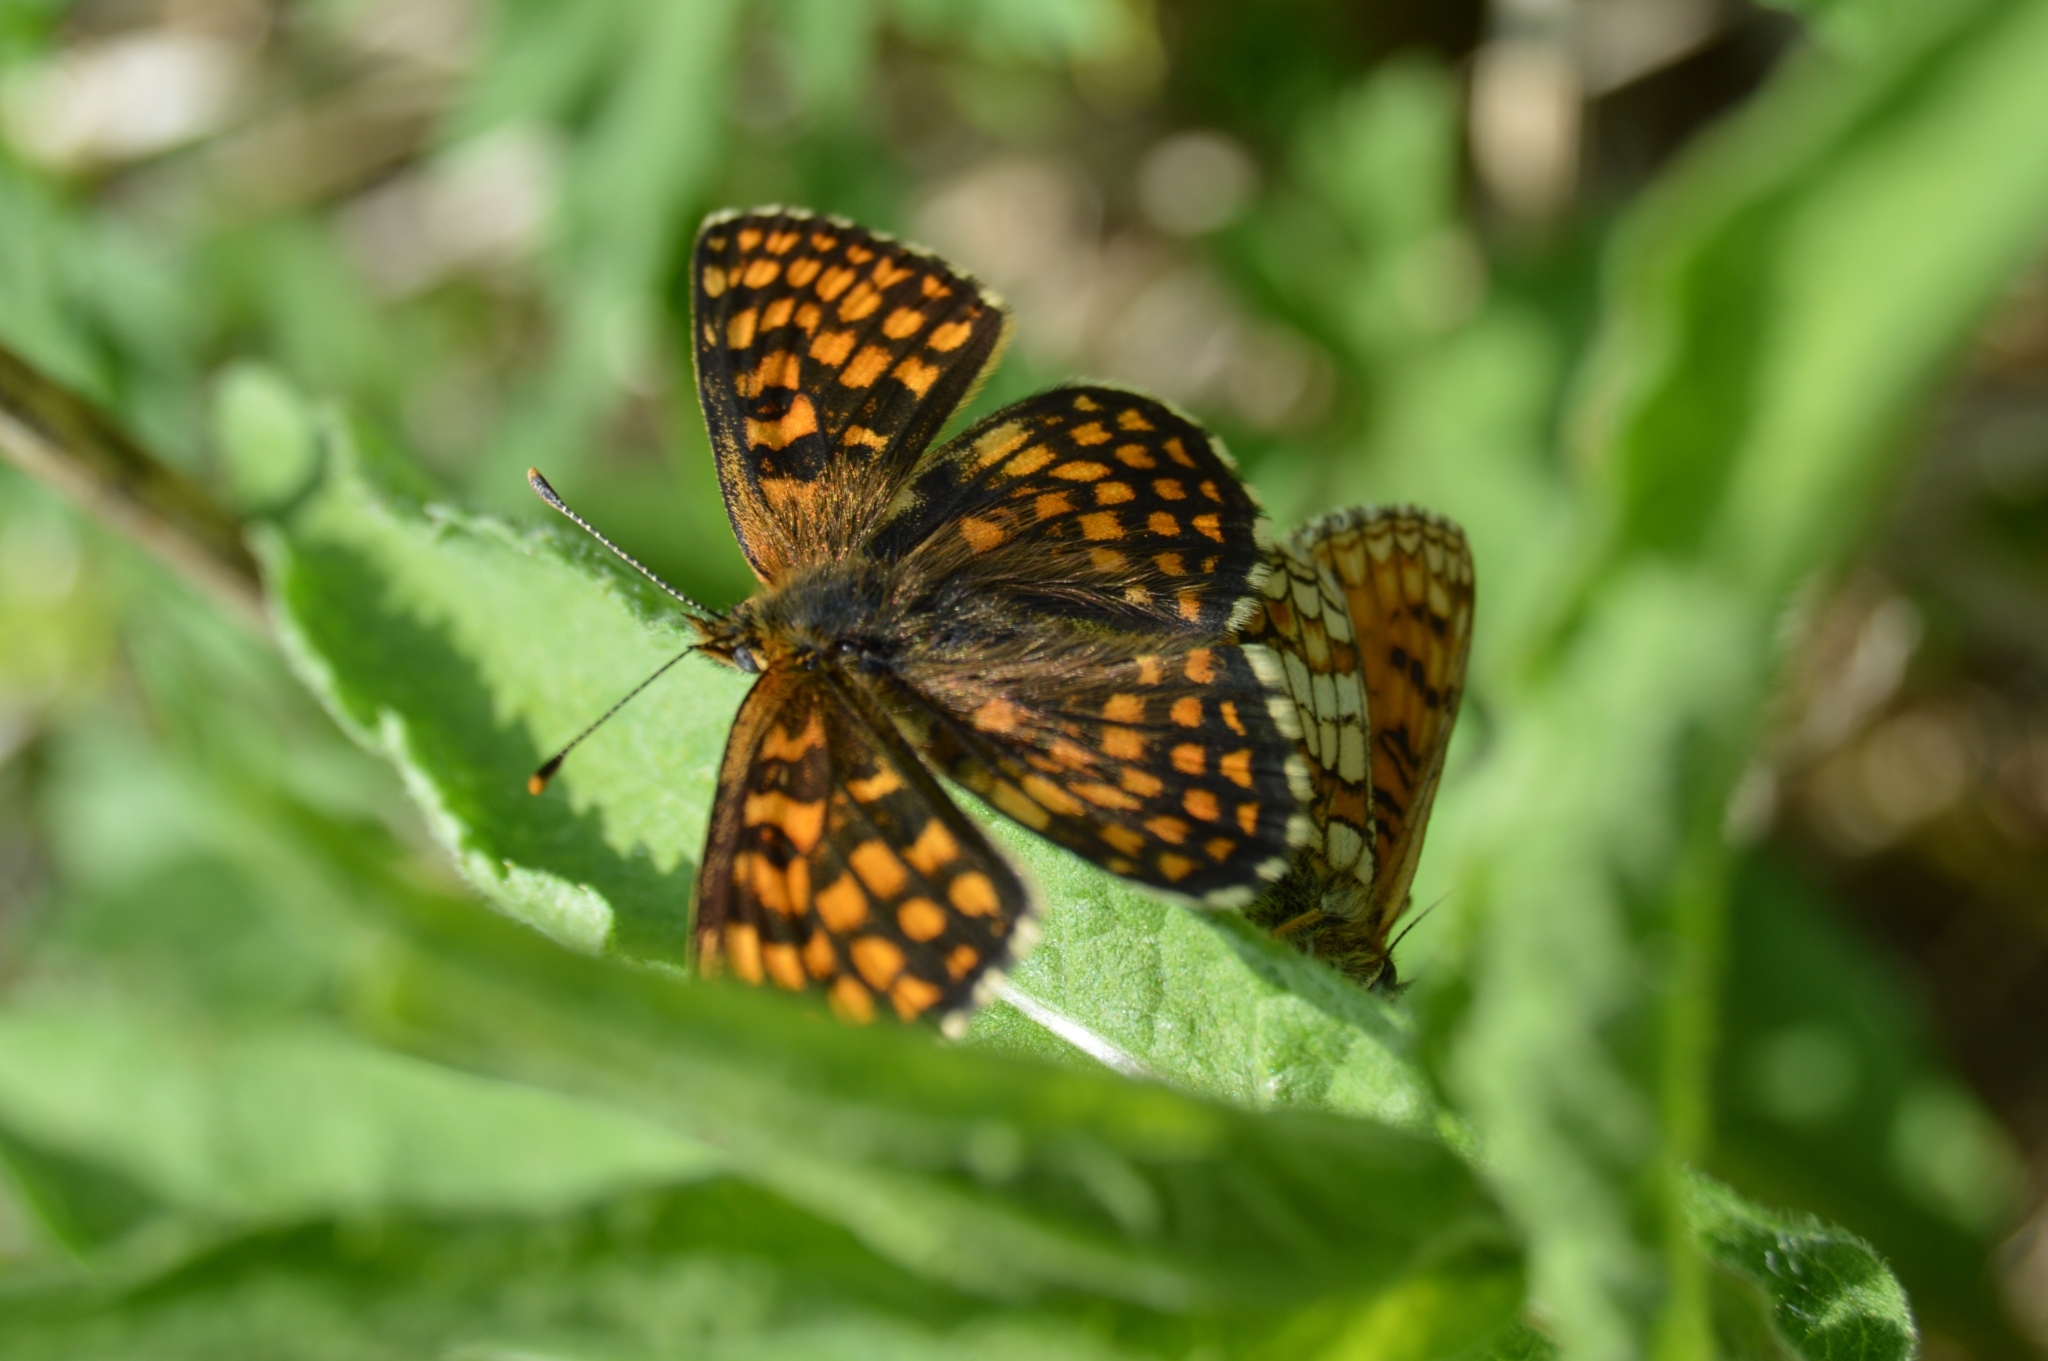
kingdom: Animalia
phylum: Arthropoda
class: Insecta
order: Lepidoptera
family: Nymphalidae
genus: Melitaea
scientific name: Melitaea athalia
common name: Heath fritillary
